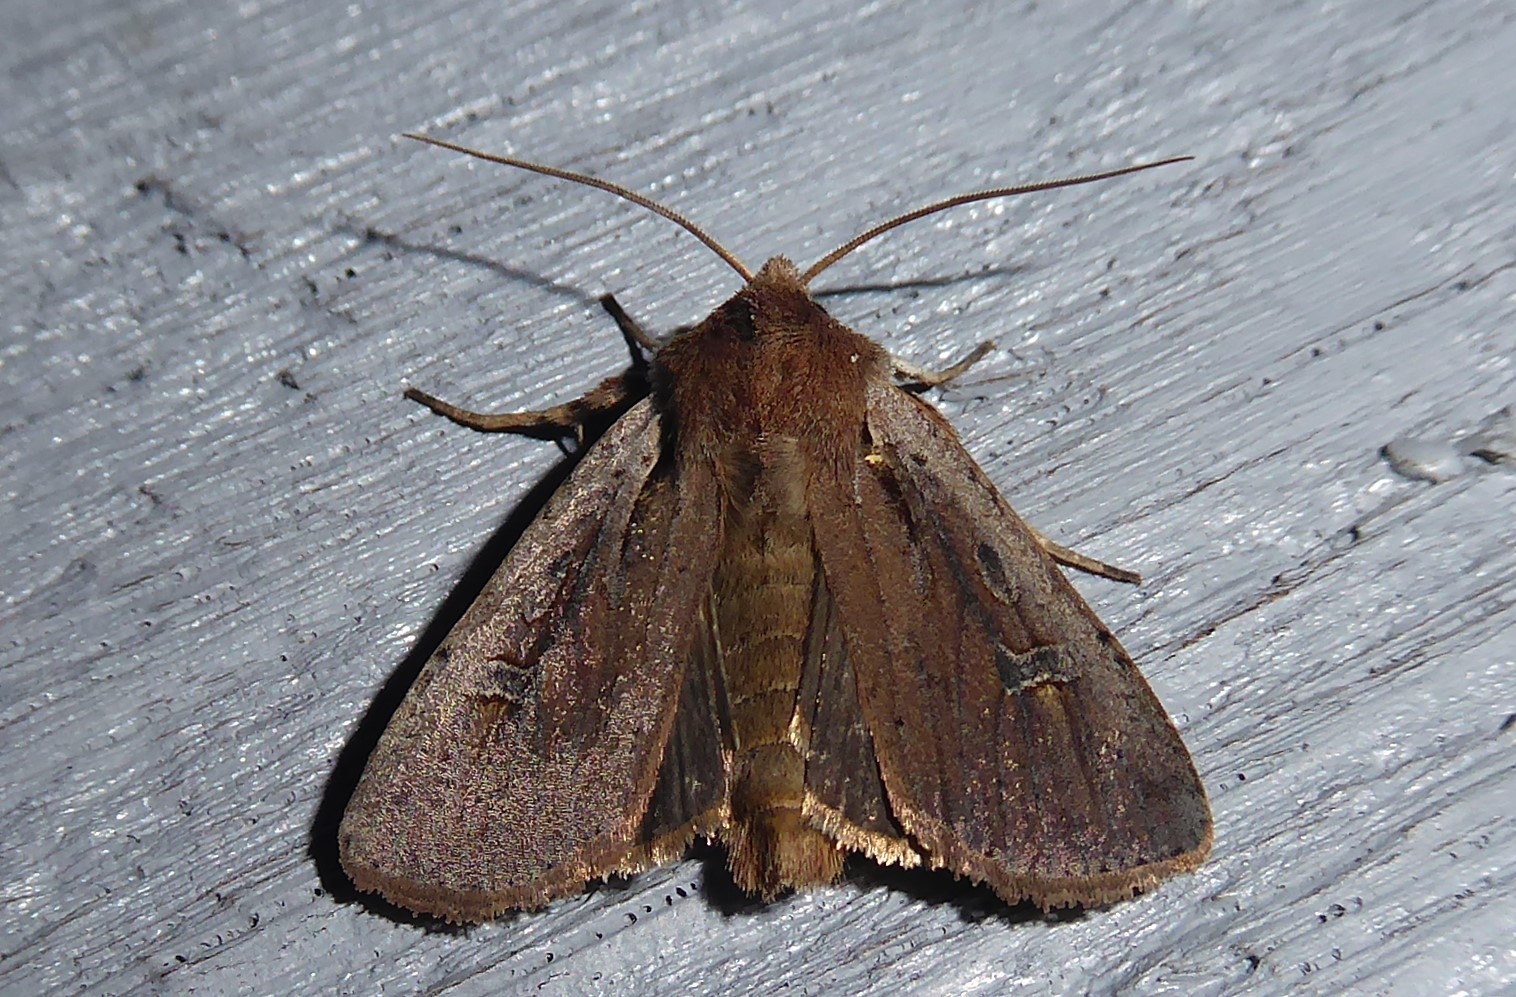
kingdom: Animalia
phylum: Arthropoda
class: Insecta
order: Lepidoptera
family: Noctuidae
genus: Ichneutica
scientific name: Ichneutica atristriga
